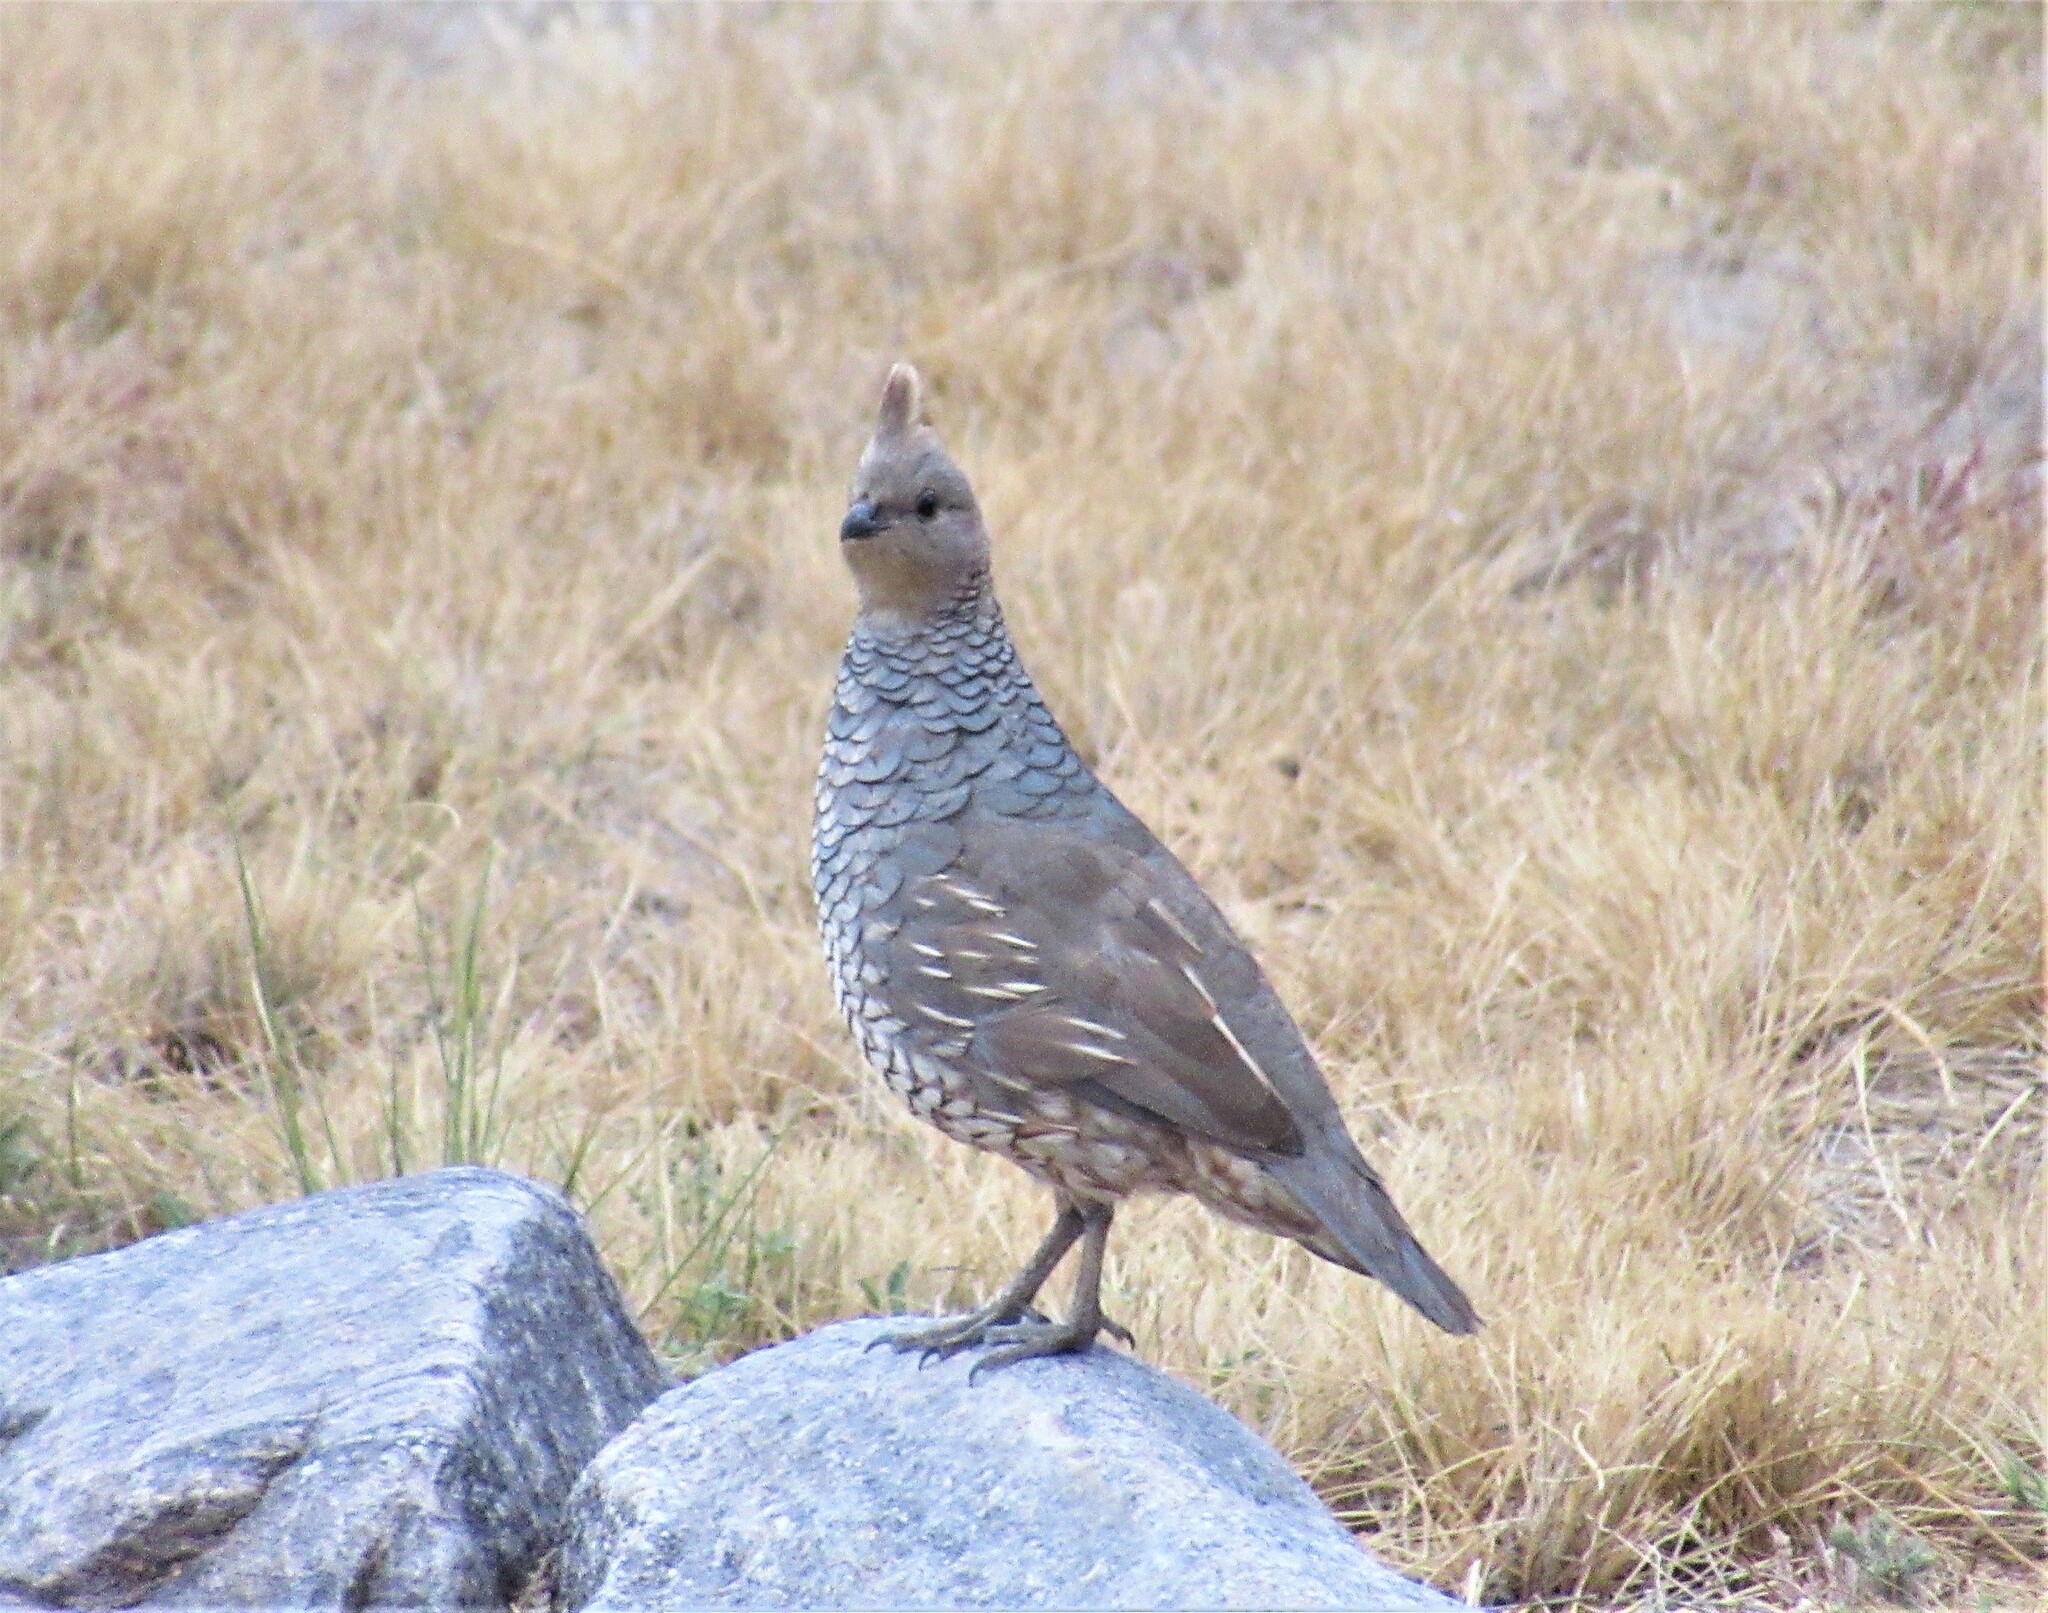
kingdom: Animalia
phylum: Chordata
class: Aves
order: Galliformes
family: Odontophoridae
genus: Callipepla
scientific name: Callipepla squamata
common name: Scaled quail
